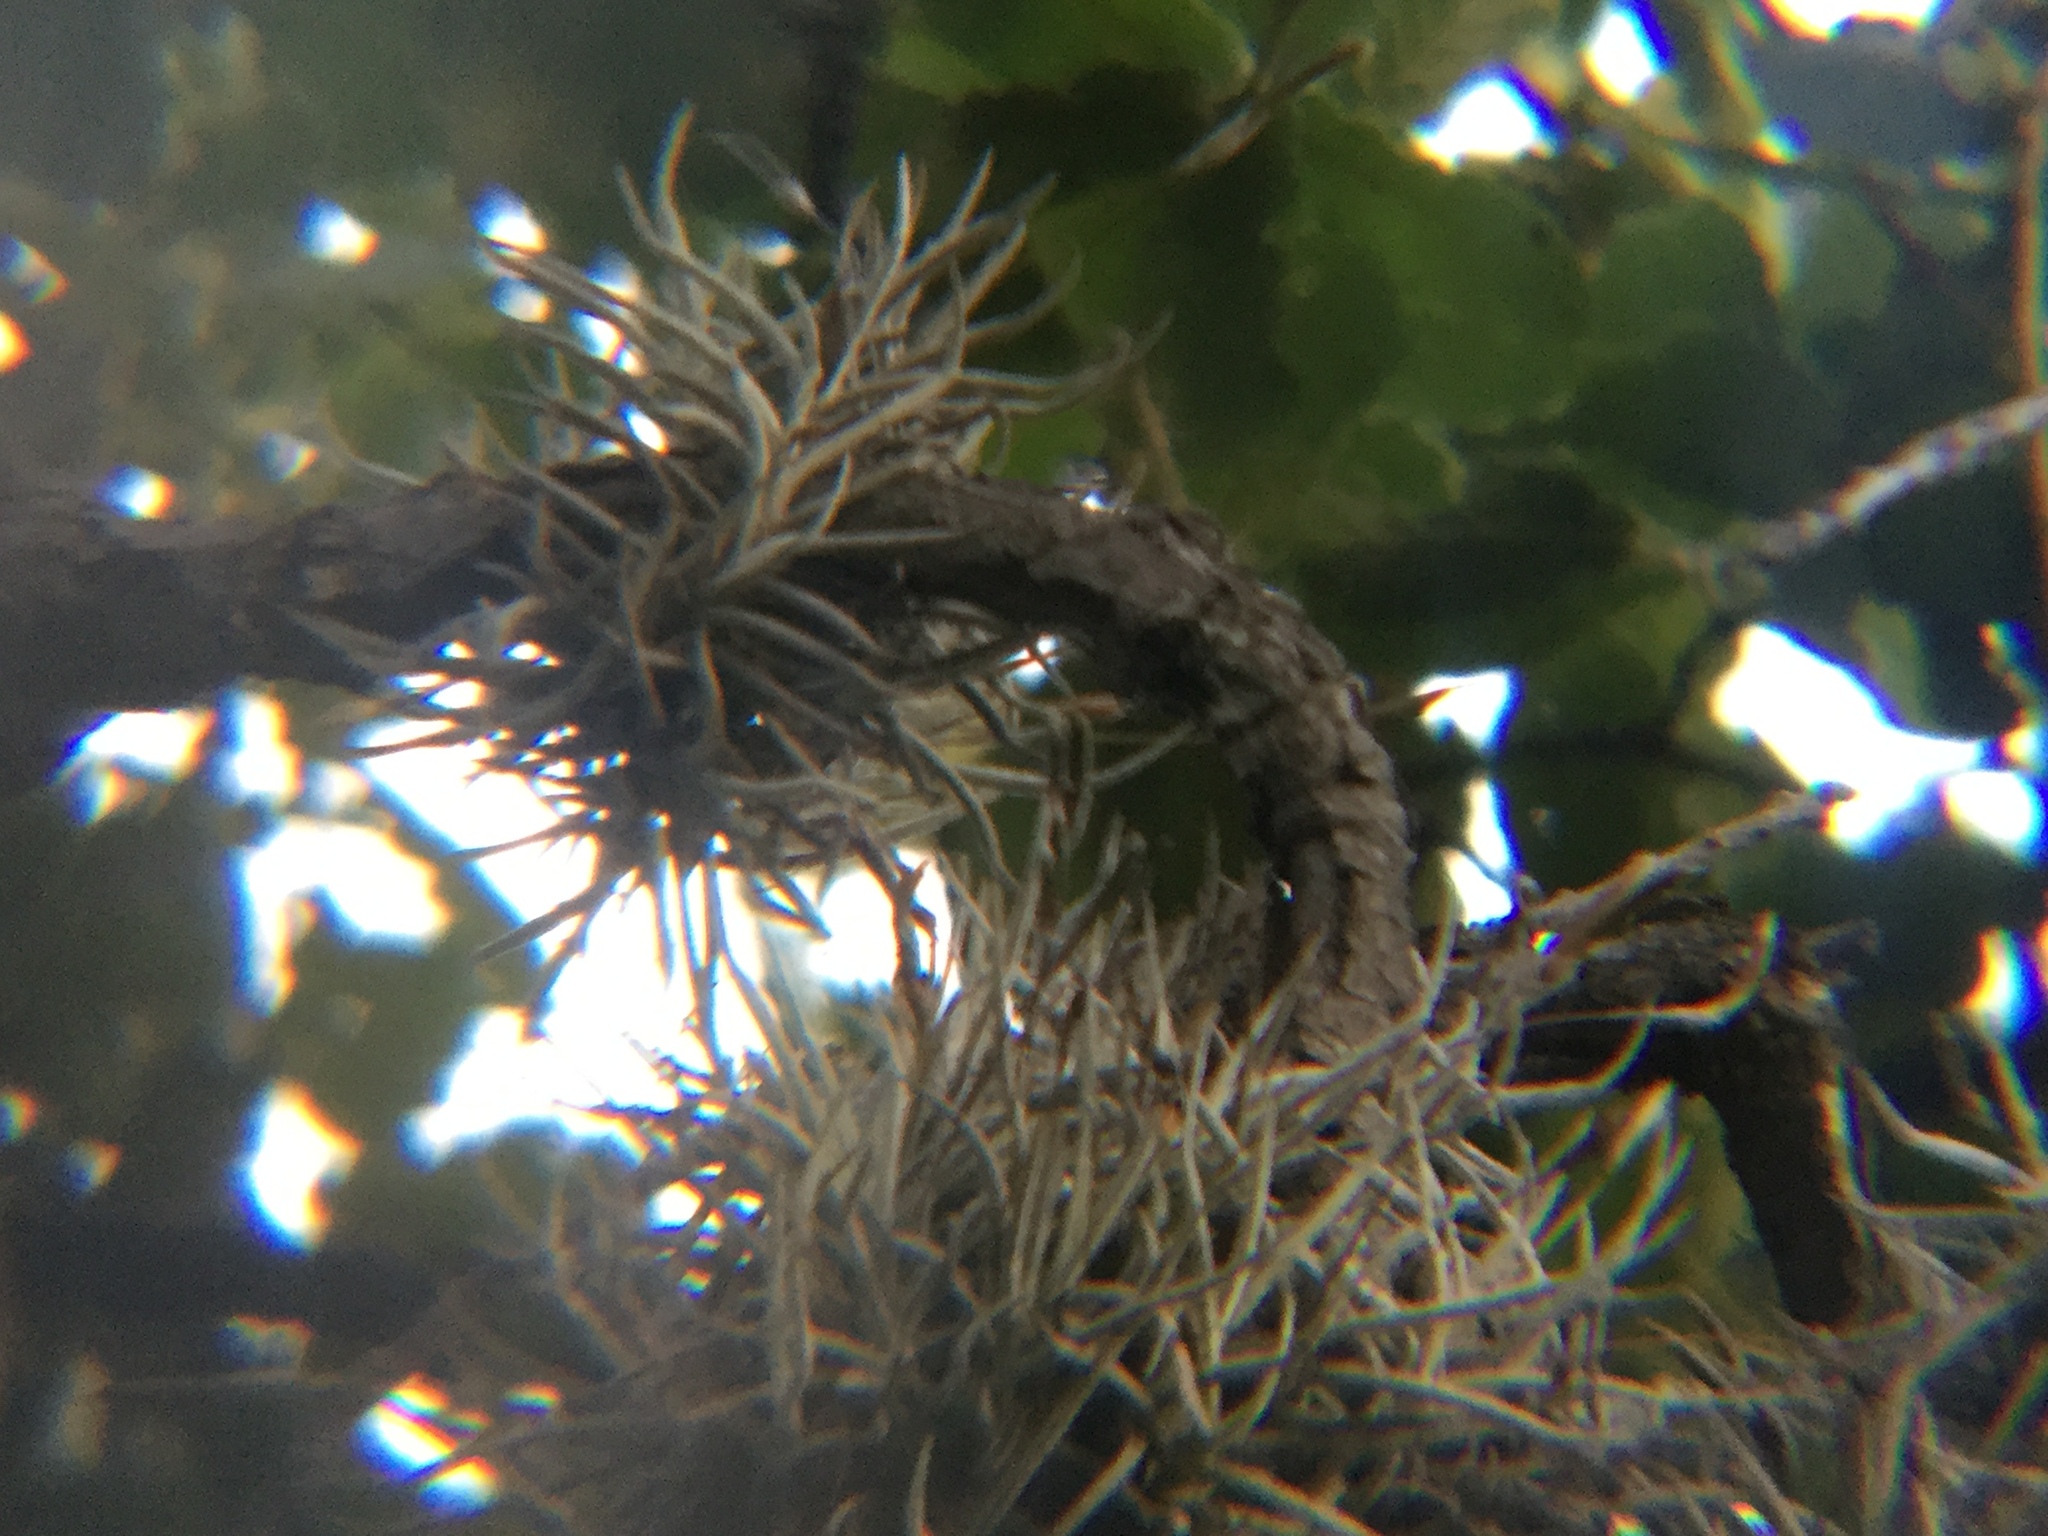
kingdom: Plantae
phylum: Tracheophyta
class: Liliopsida
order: Poales
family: Bromeliaceae
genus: Tillandsia
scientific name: Tillandsia recurvata
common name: Small ballmoss
